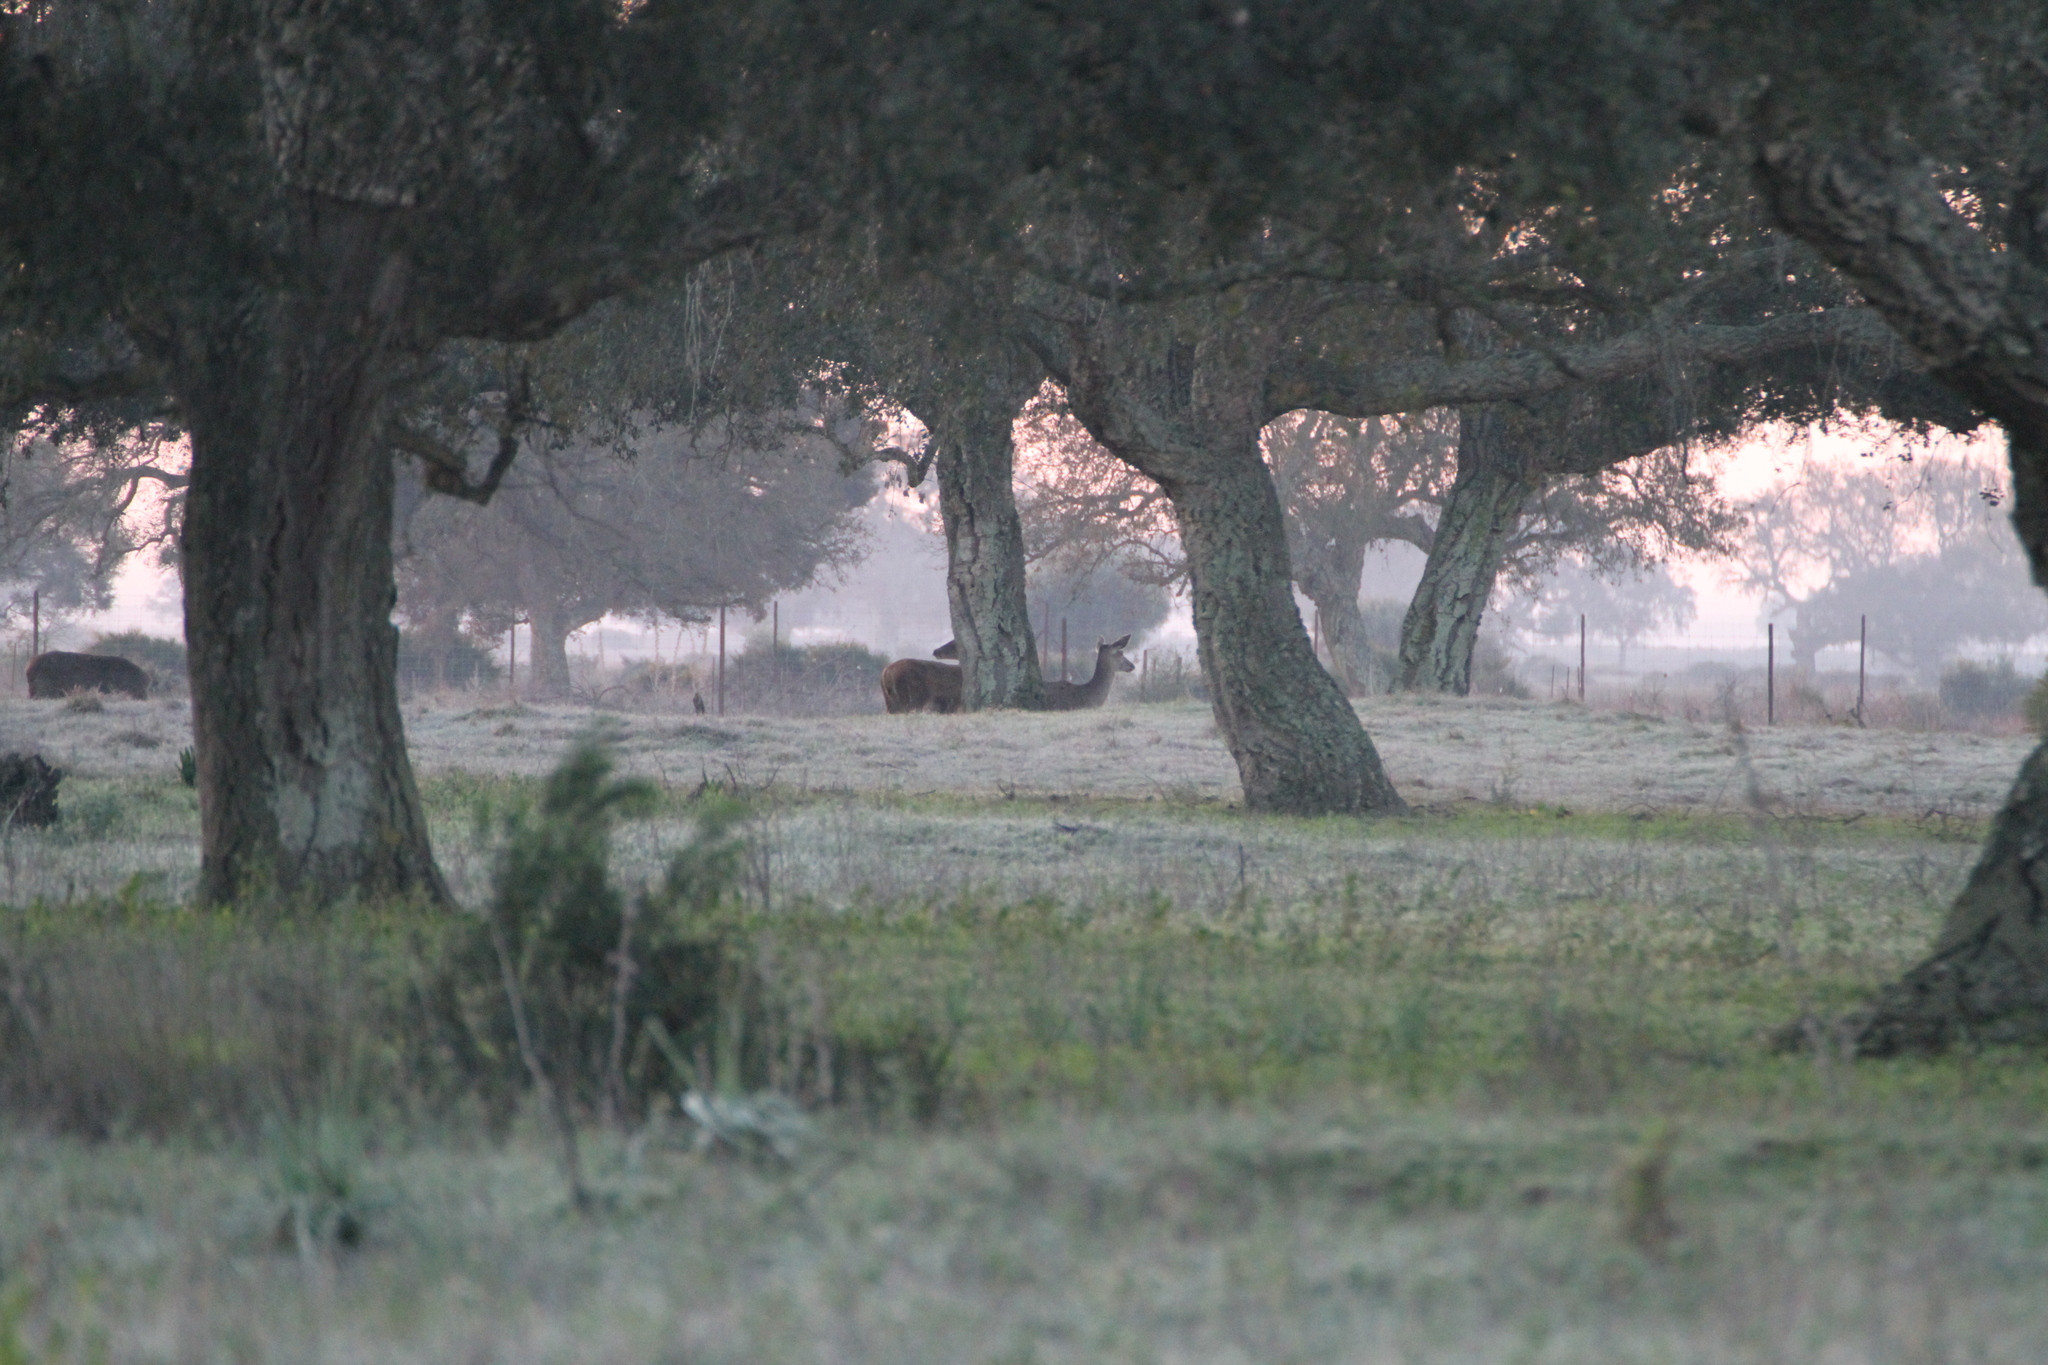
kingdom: Animalia
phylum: Chordata
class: Mammalia
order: Artiodactyla
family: Cervidae
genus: Cervus
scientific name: Cervus elaphus
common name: Red deer
